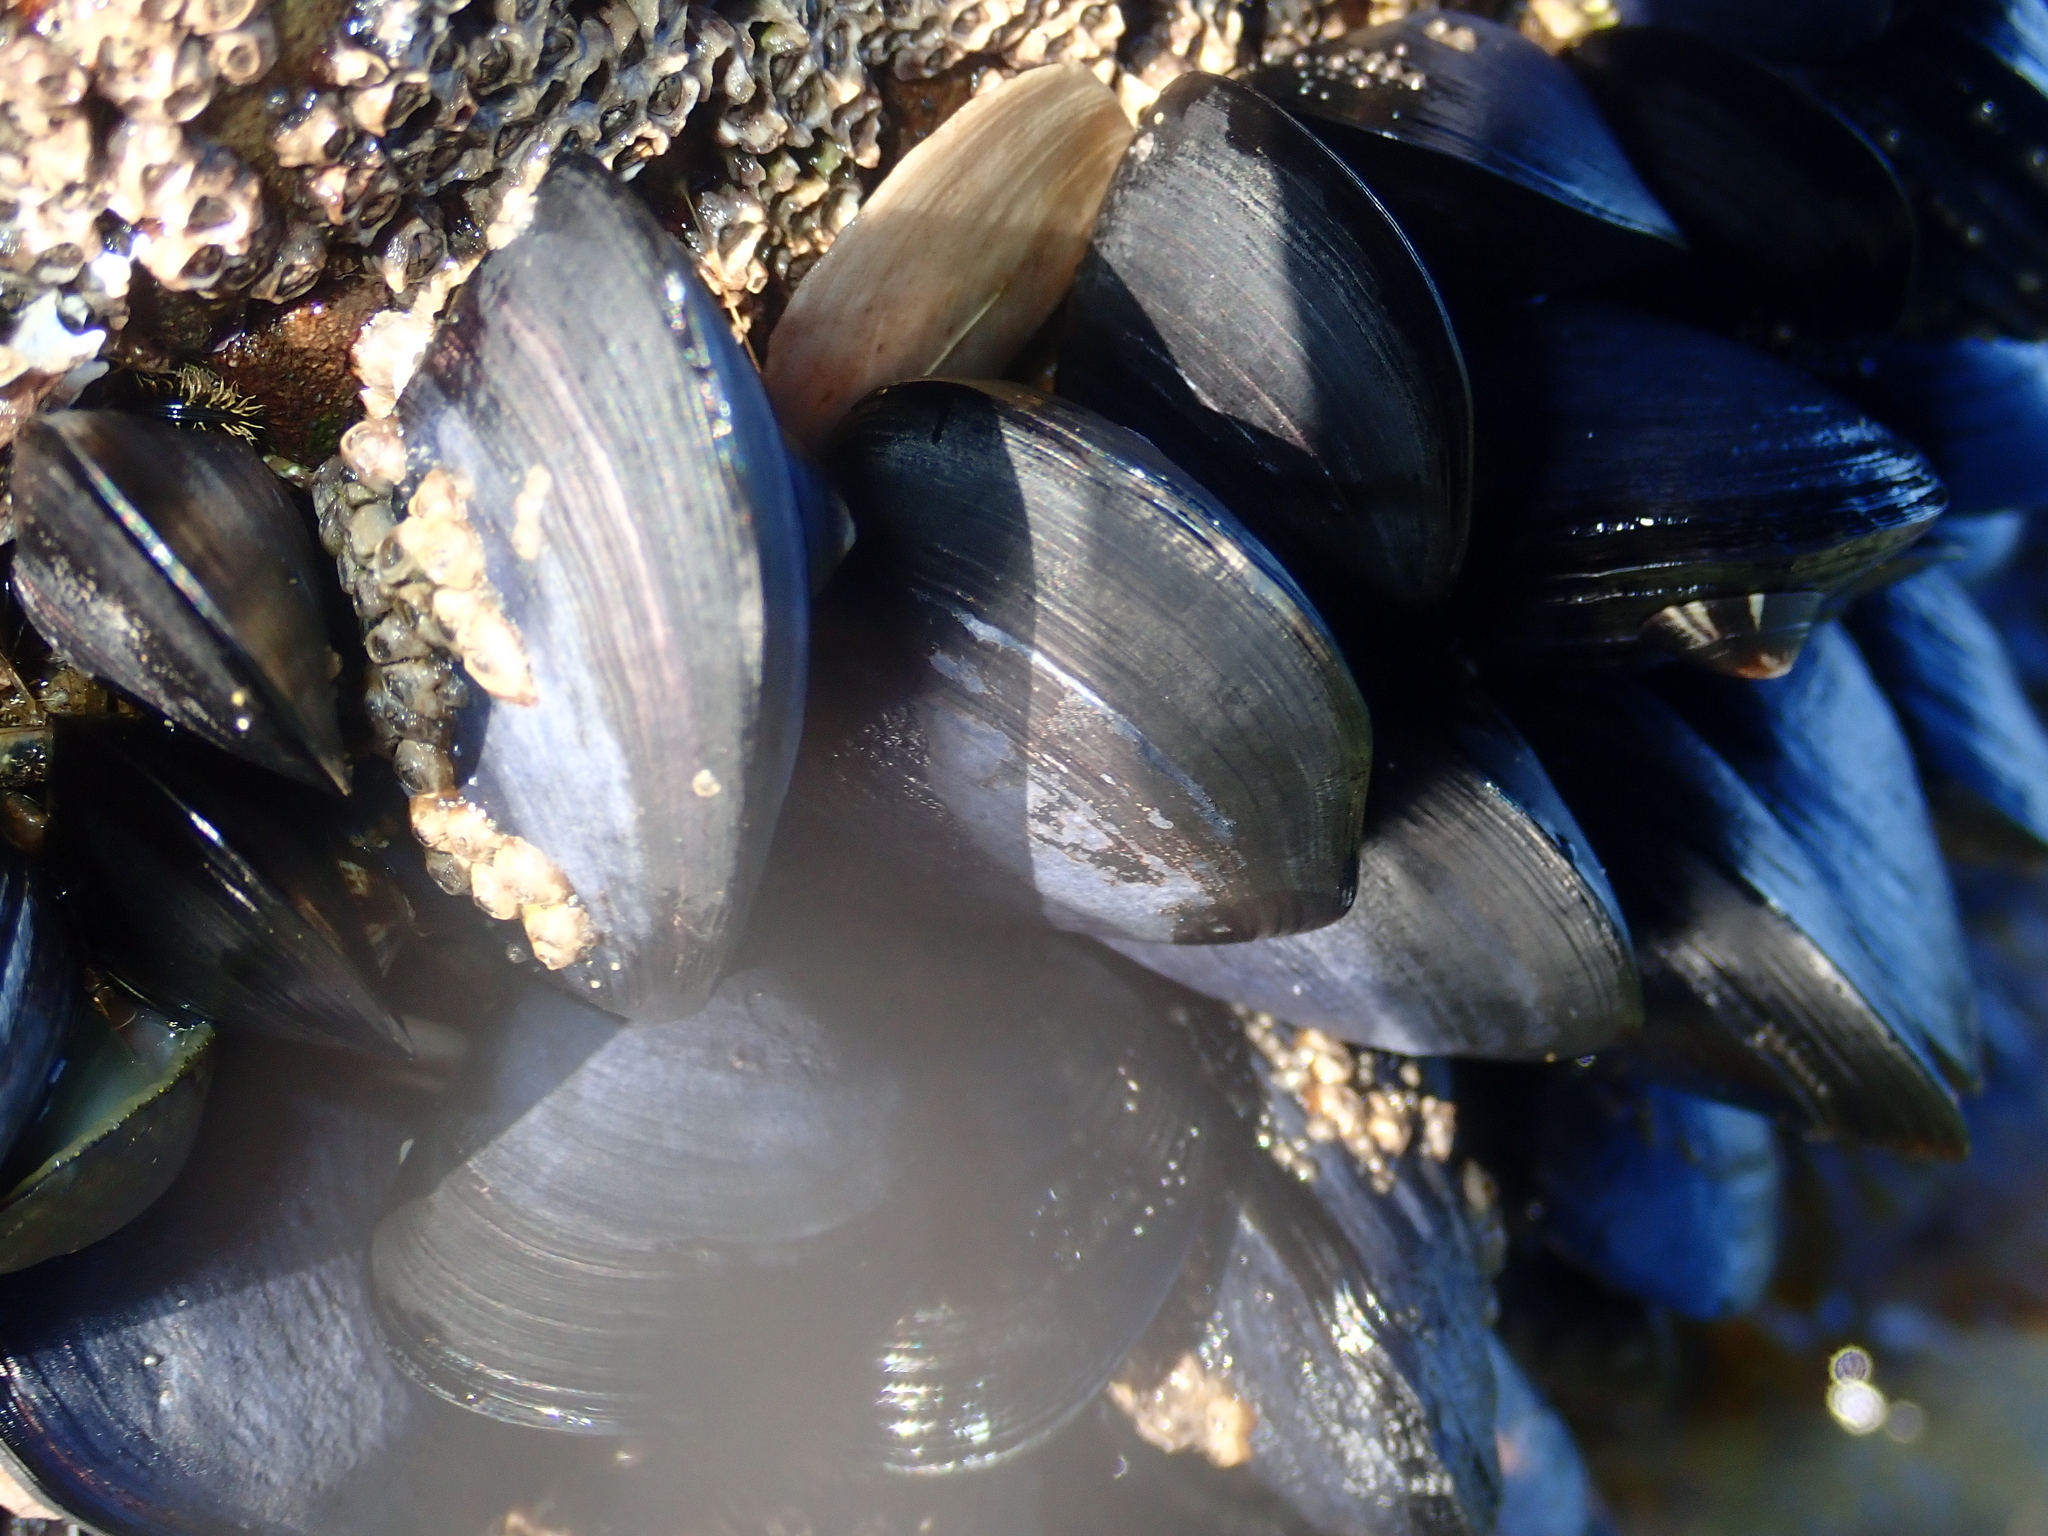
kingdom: Animalia
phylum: Mollusca
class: Bivalvia
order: Mytilida
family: Mytilidae
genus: Mytilus
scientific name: Mytilus planulatus
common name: Australian mussel
